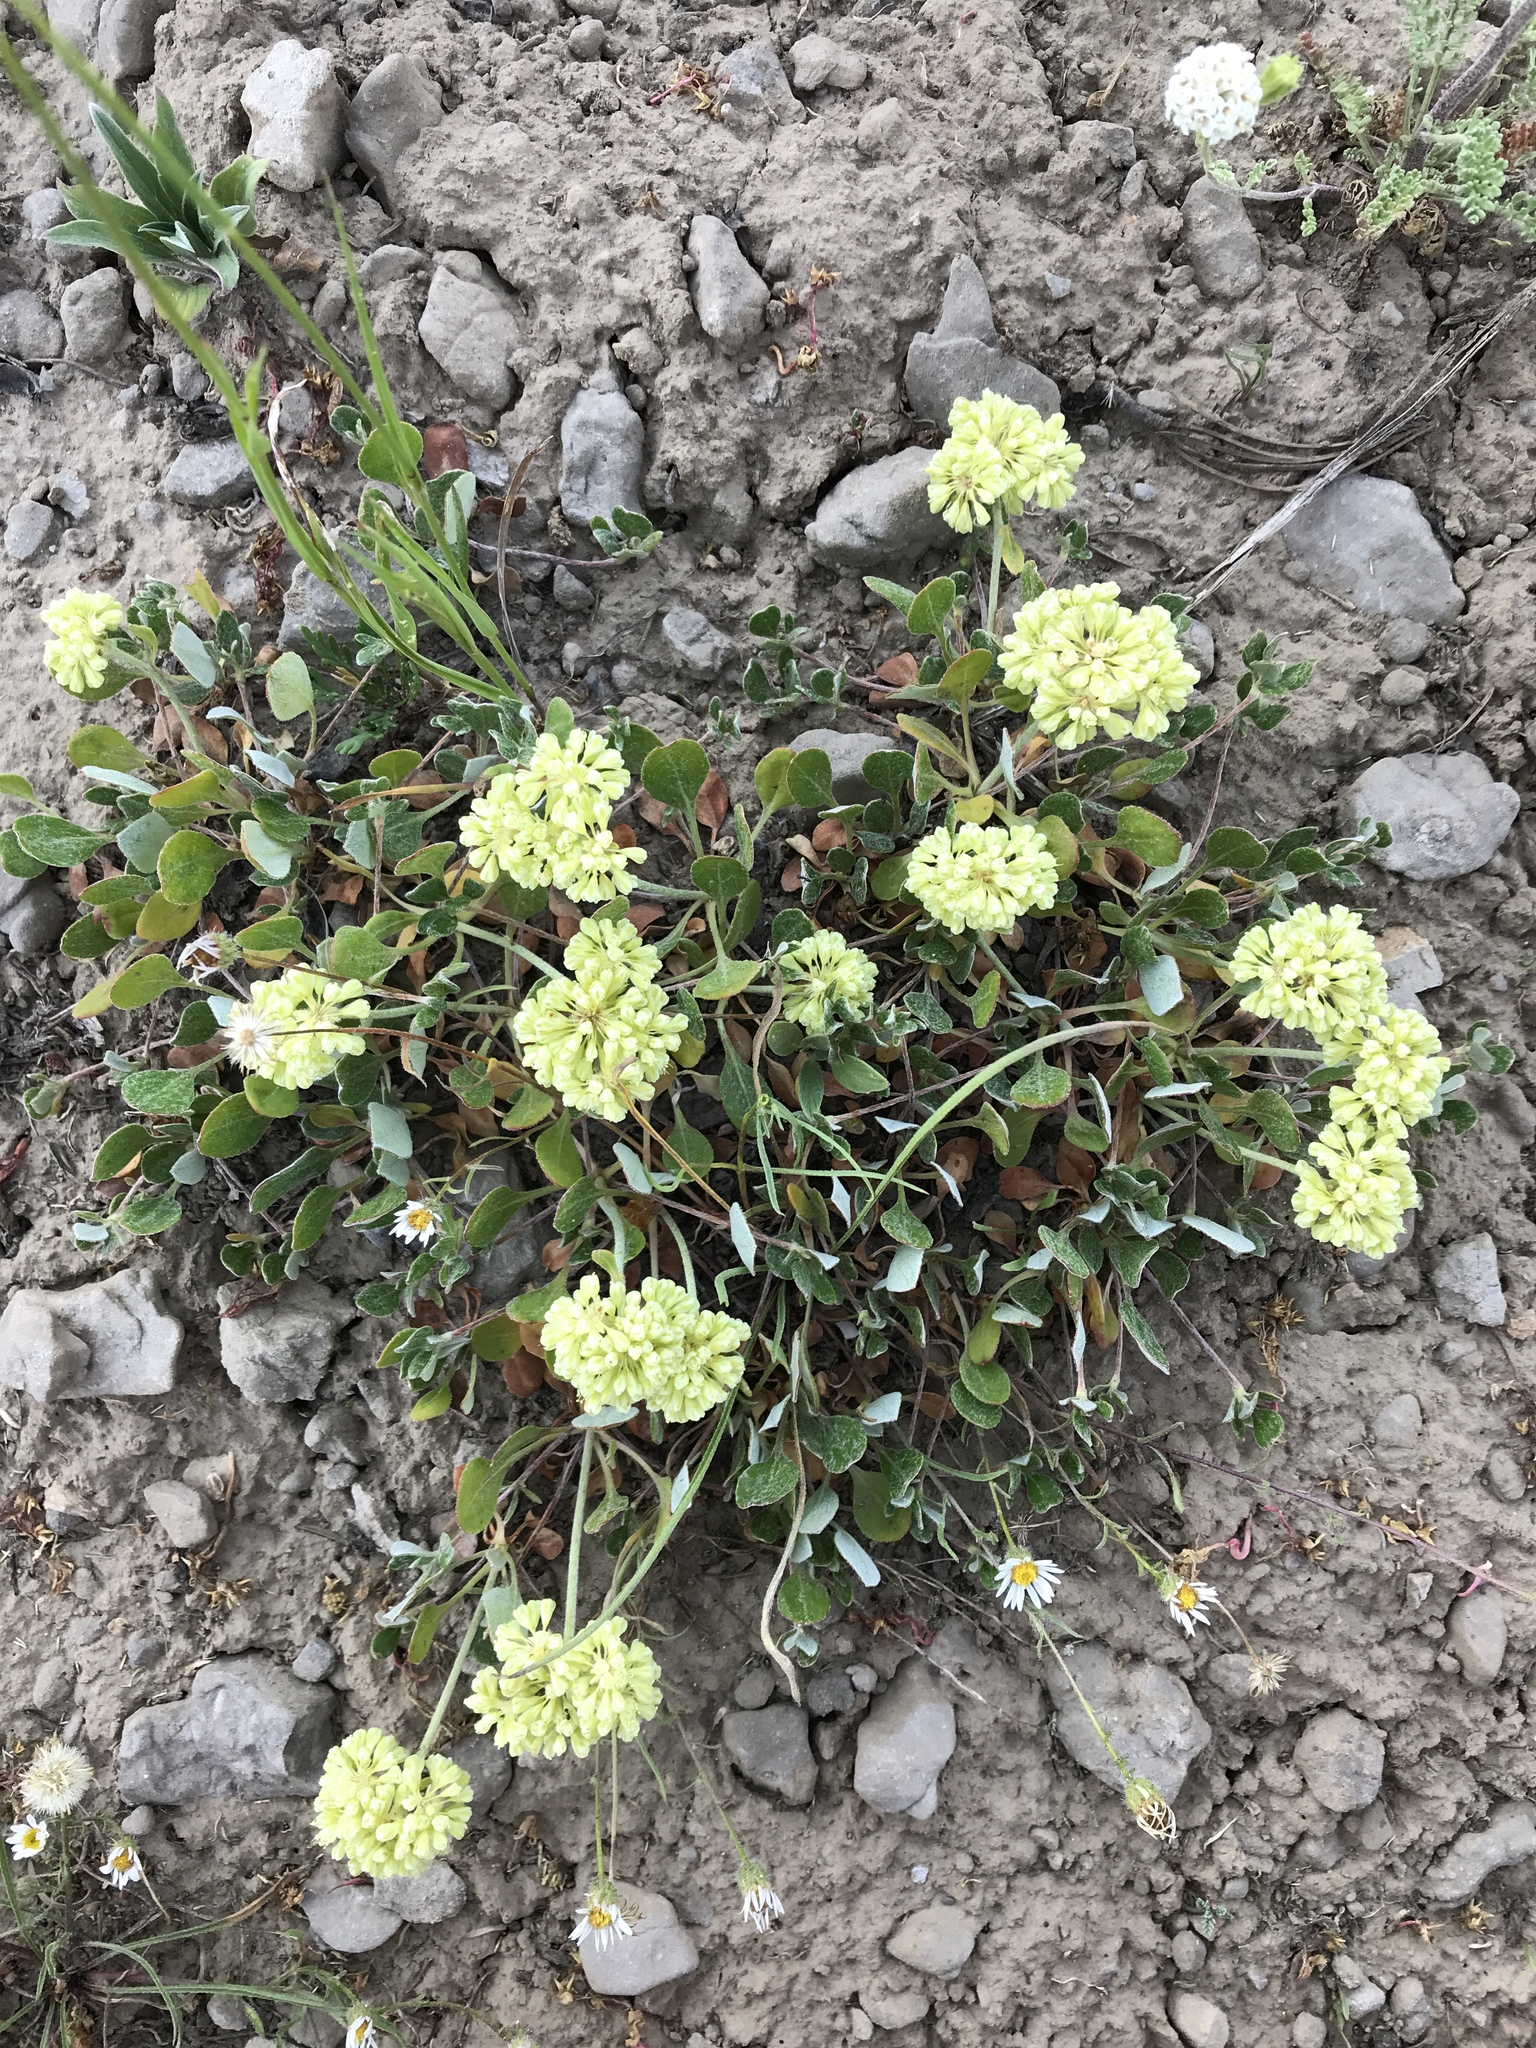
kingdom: Plantae
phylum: Tracheophyta
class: Magnoliopsida
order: Caryophyllales
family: Polygonaceae
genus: Eriogonum
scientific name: Eriogonum umbellatum
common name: Sulfur-buckwheat
